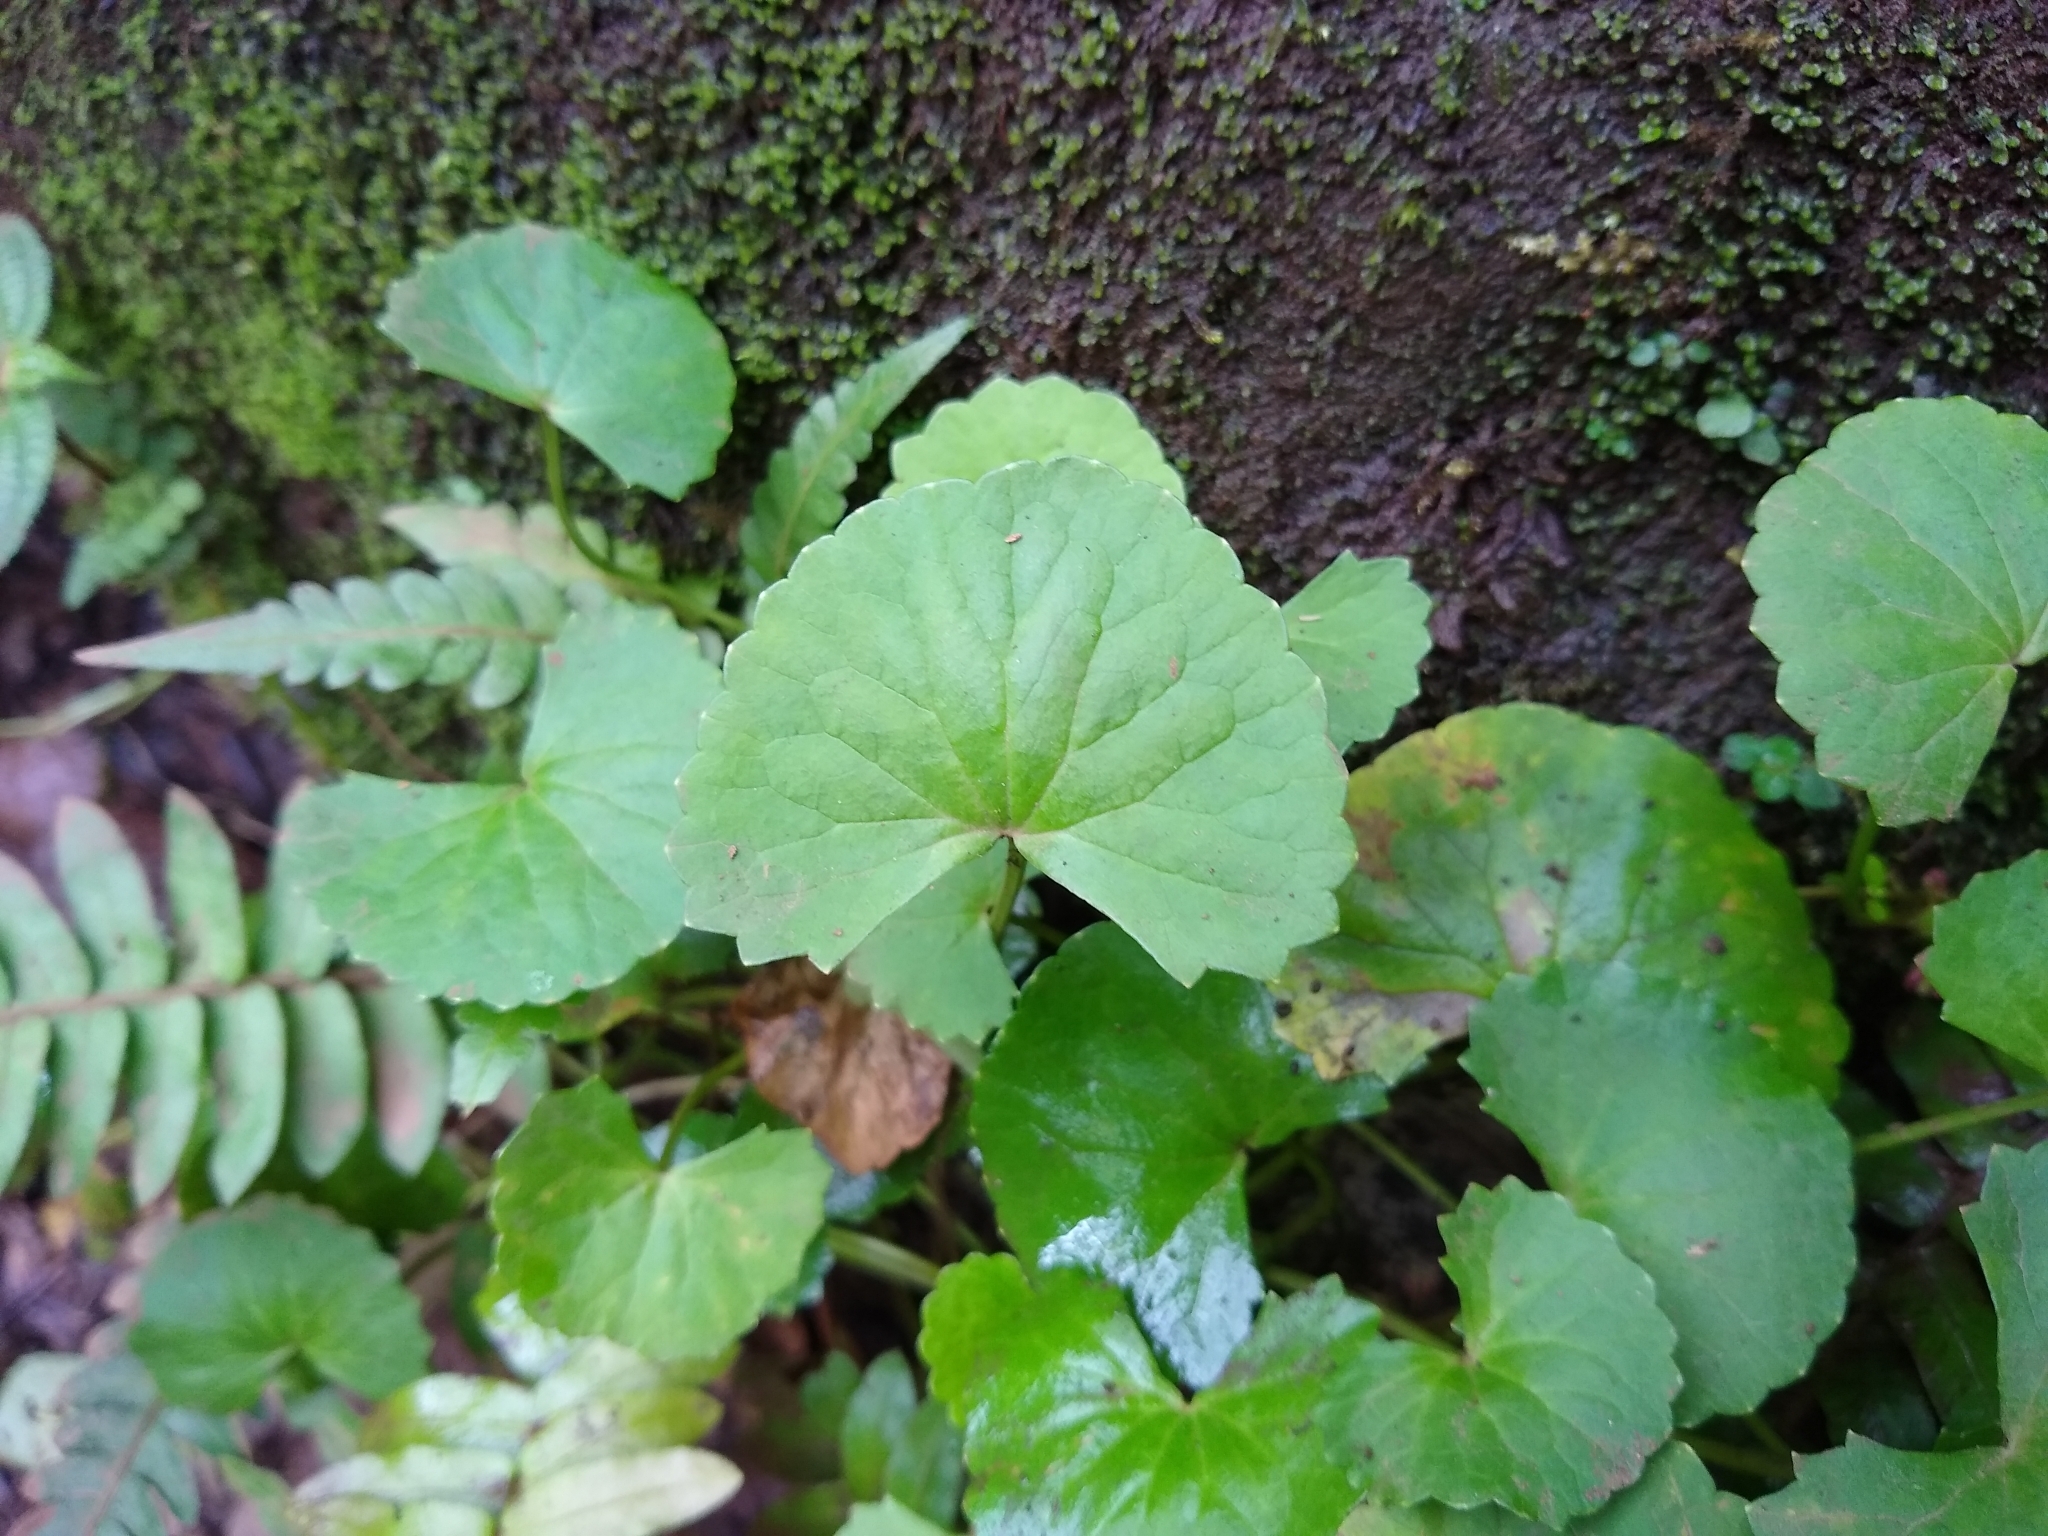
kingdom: Plantae
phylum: Tracheophyta
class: Magnoliopsida
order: Apiales
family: Apiaceae
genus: Centella
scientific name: Centella asiatica
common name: Spadeleaf
